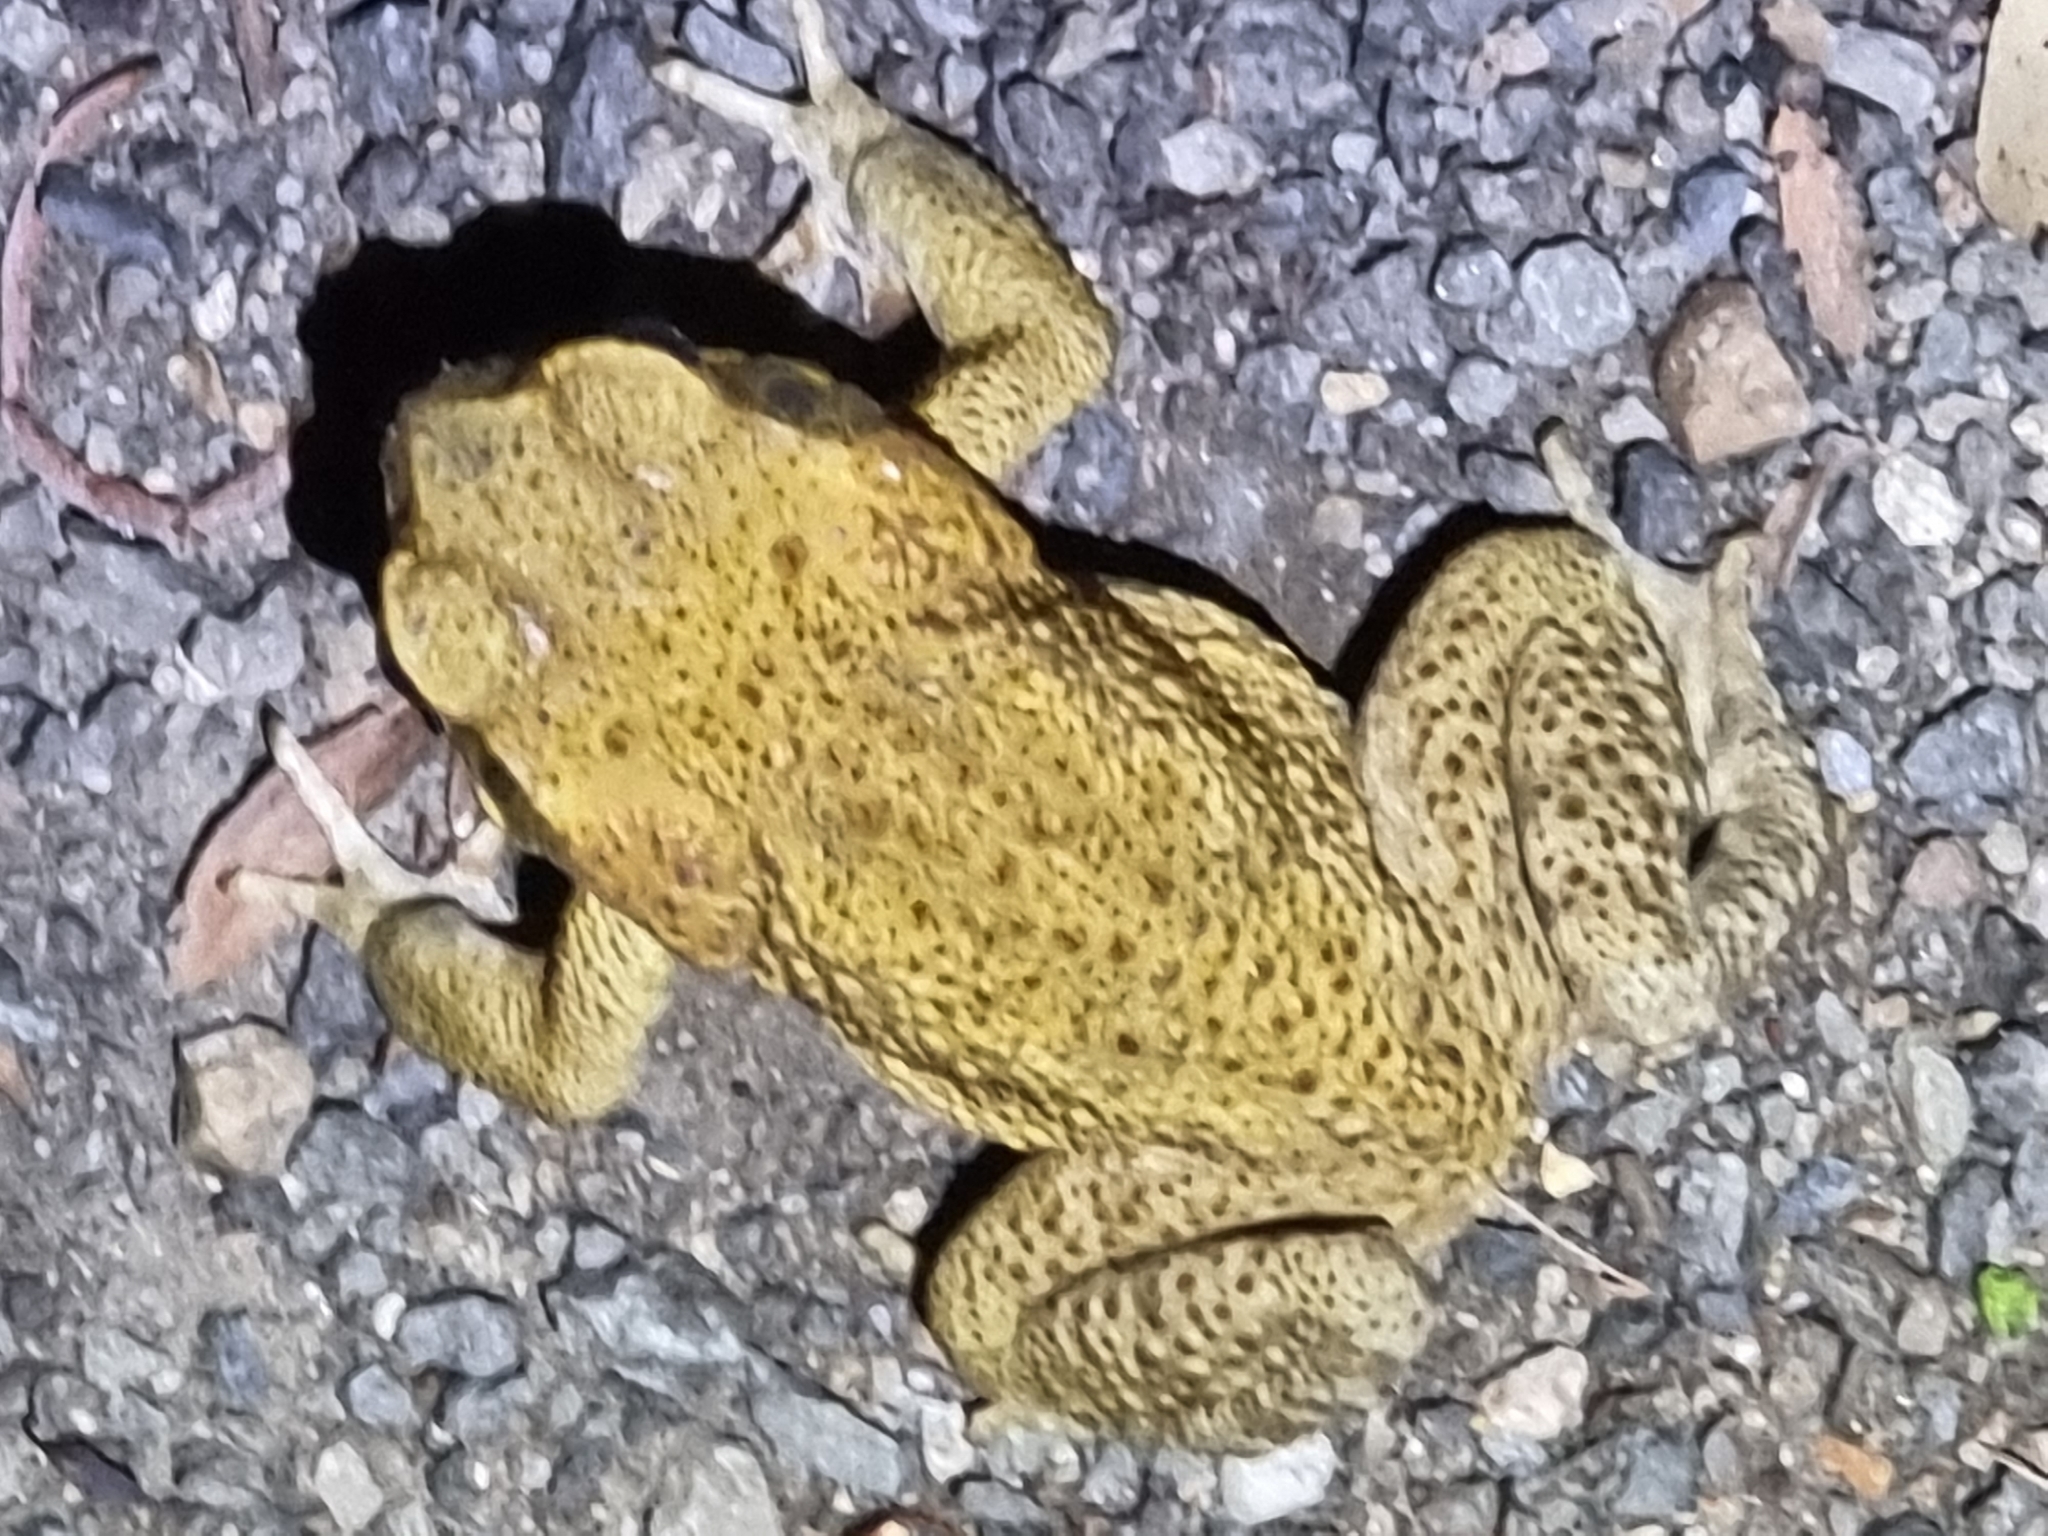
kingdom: Animalia
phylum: Chordata
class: Amphibia
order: Anura
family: Bufonidae
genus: Rhinella
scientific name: Rhinella marina
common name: Cane toad
